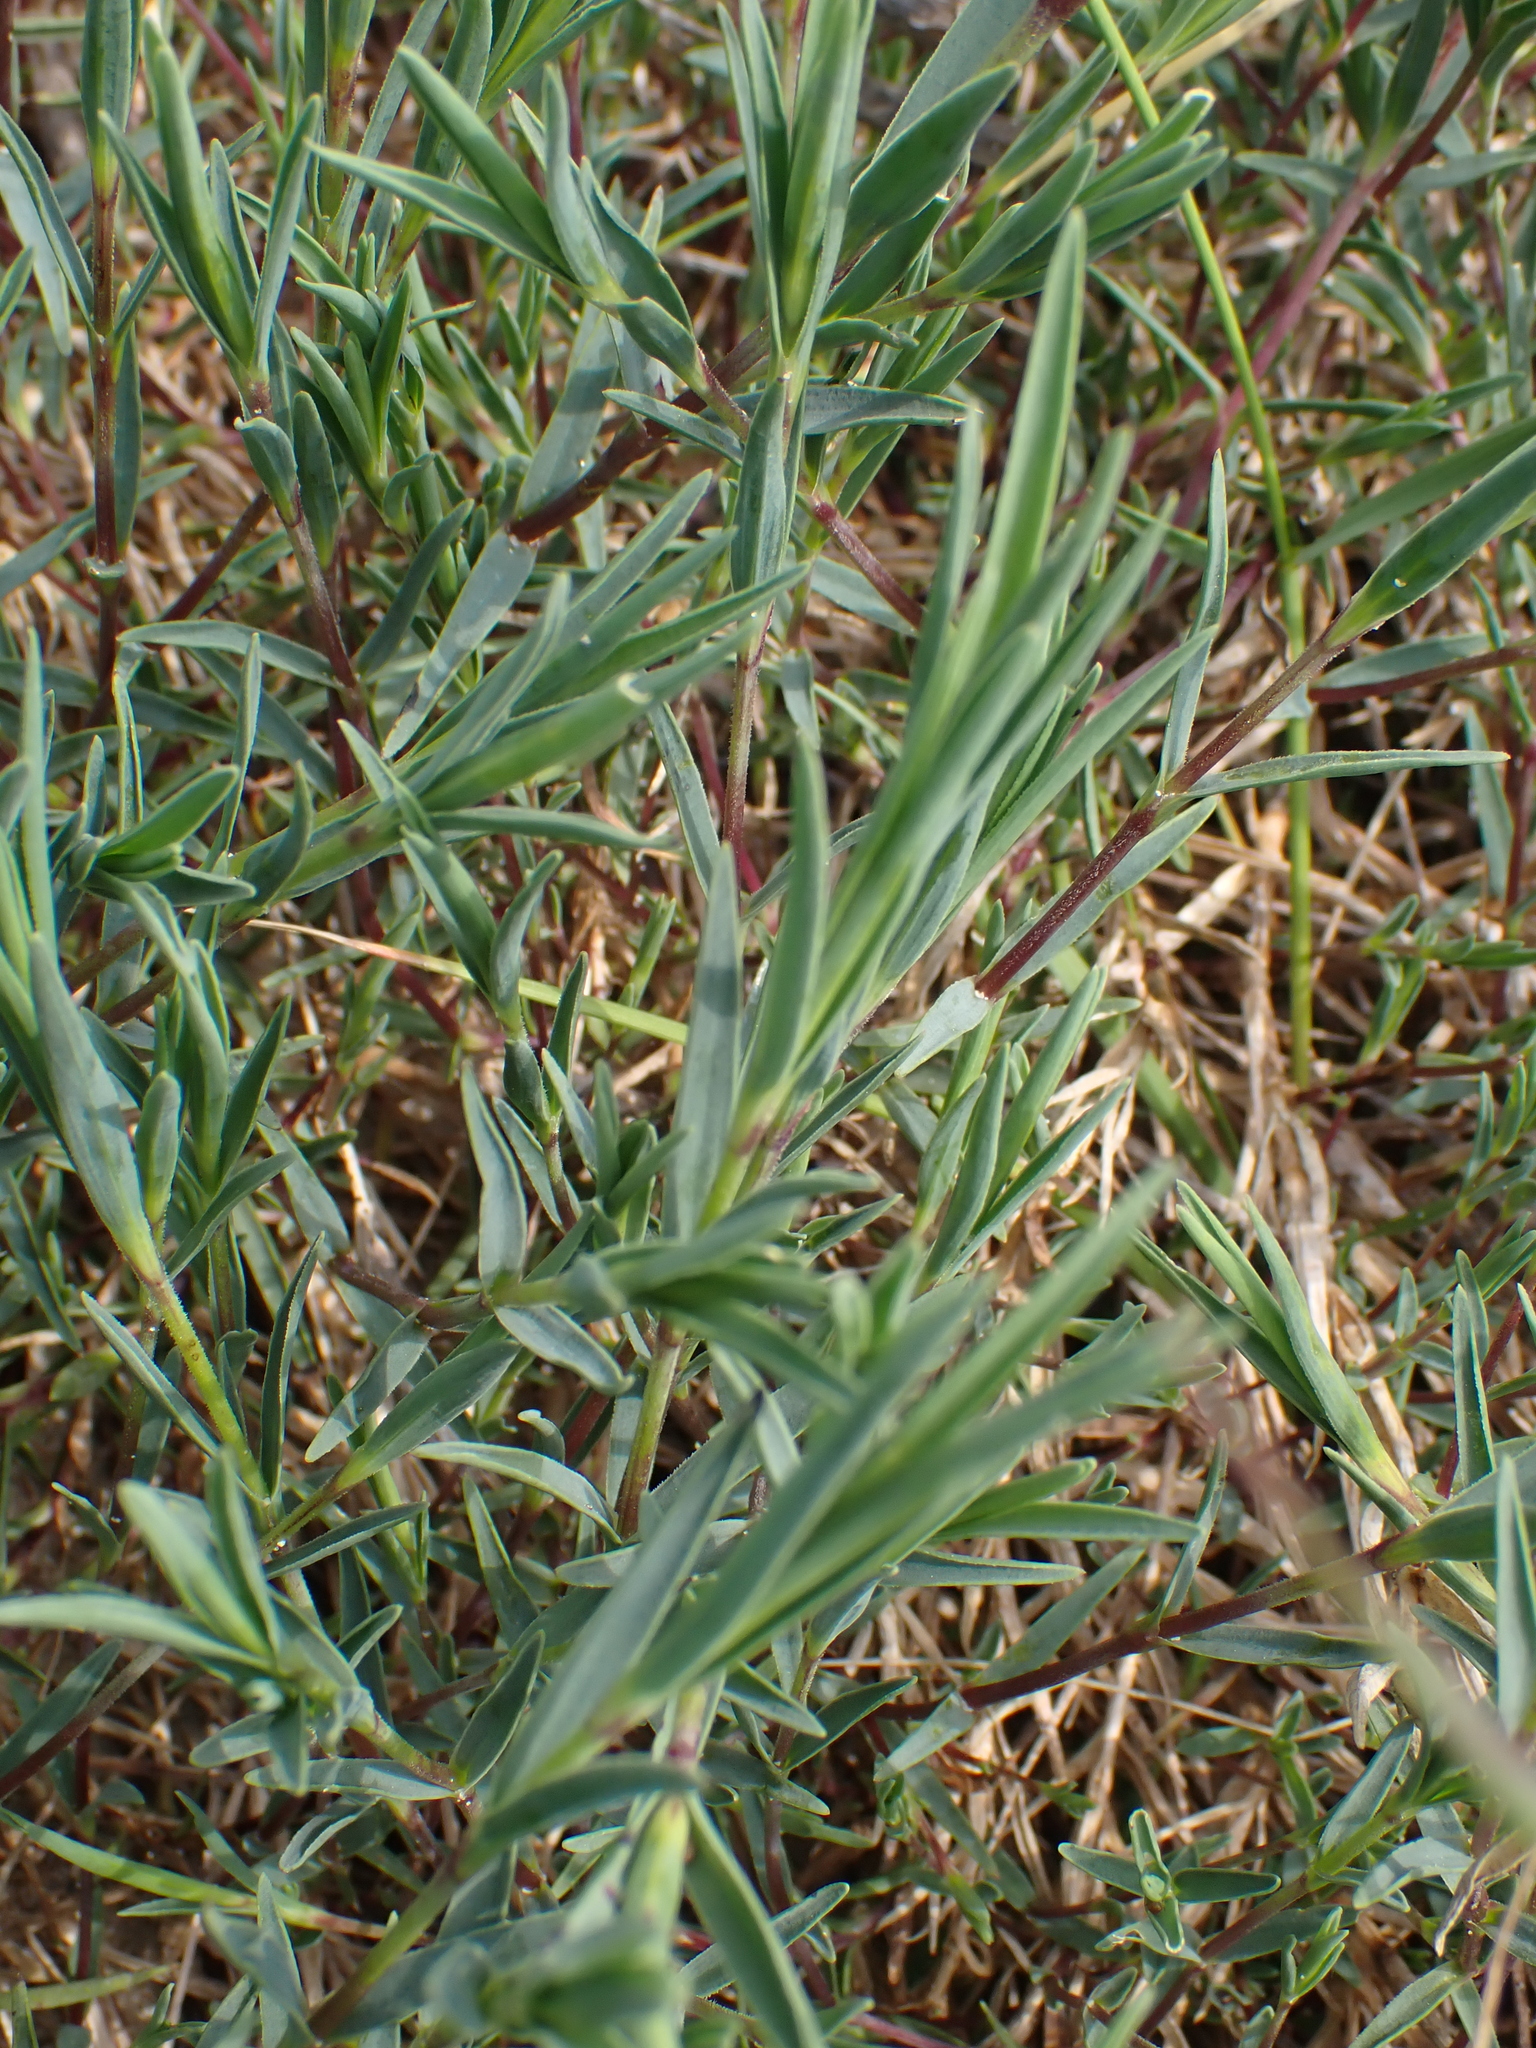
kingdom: Plantae
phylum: Tracheophyta
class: Magnoliopsida
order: Caryophyllales
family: Caryophyllaceae
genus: Dianthus
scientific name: Dianthus gallicus
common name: Jersey pink
